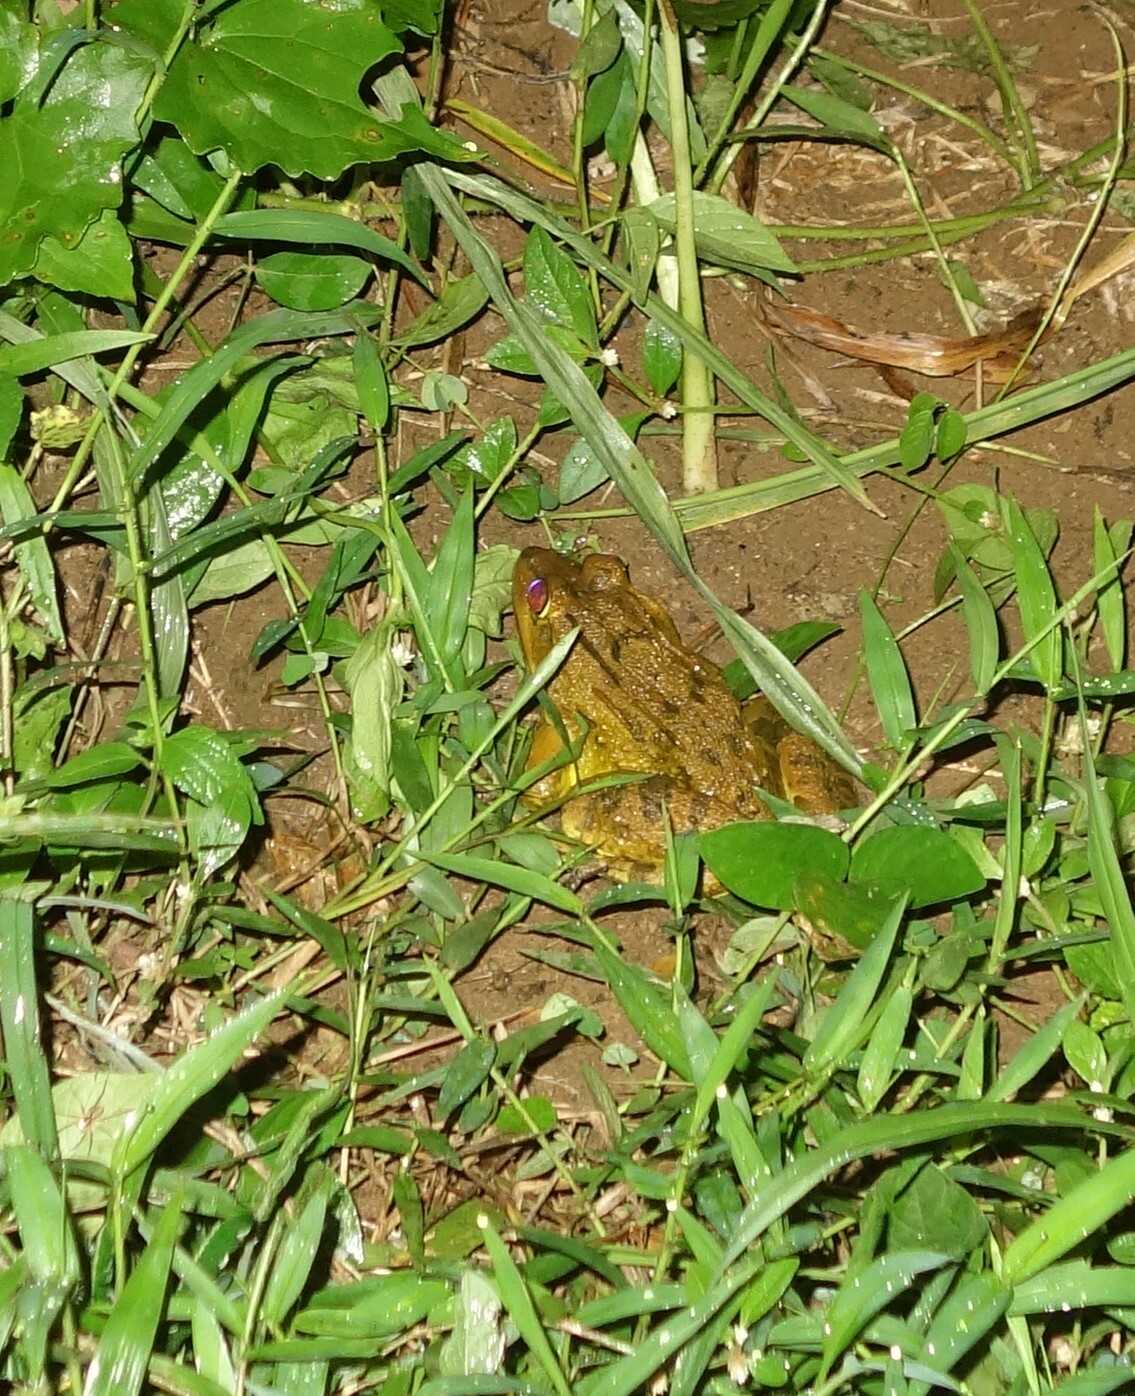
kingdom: Animalia
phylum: Chordata
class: Amphibia
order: Anura
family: Dicroglossidae
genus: Hoplobatrachus
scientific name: Hoplobatrachus tigerinus
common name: Indian bullfrog
